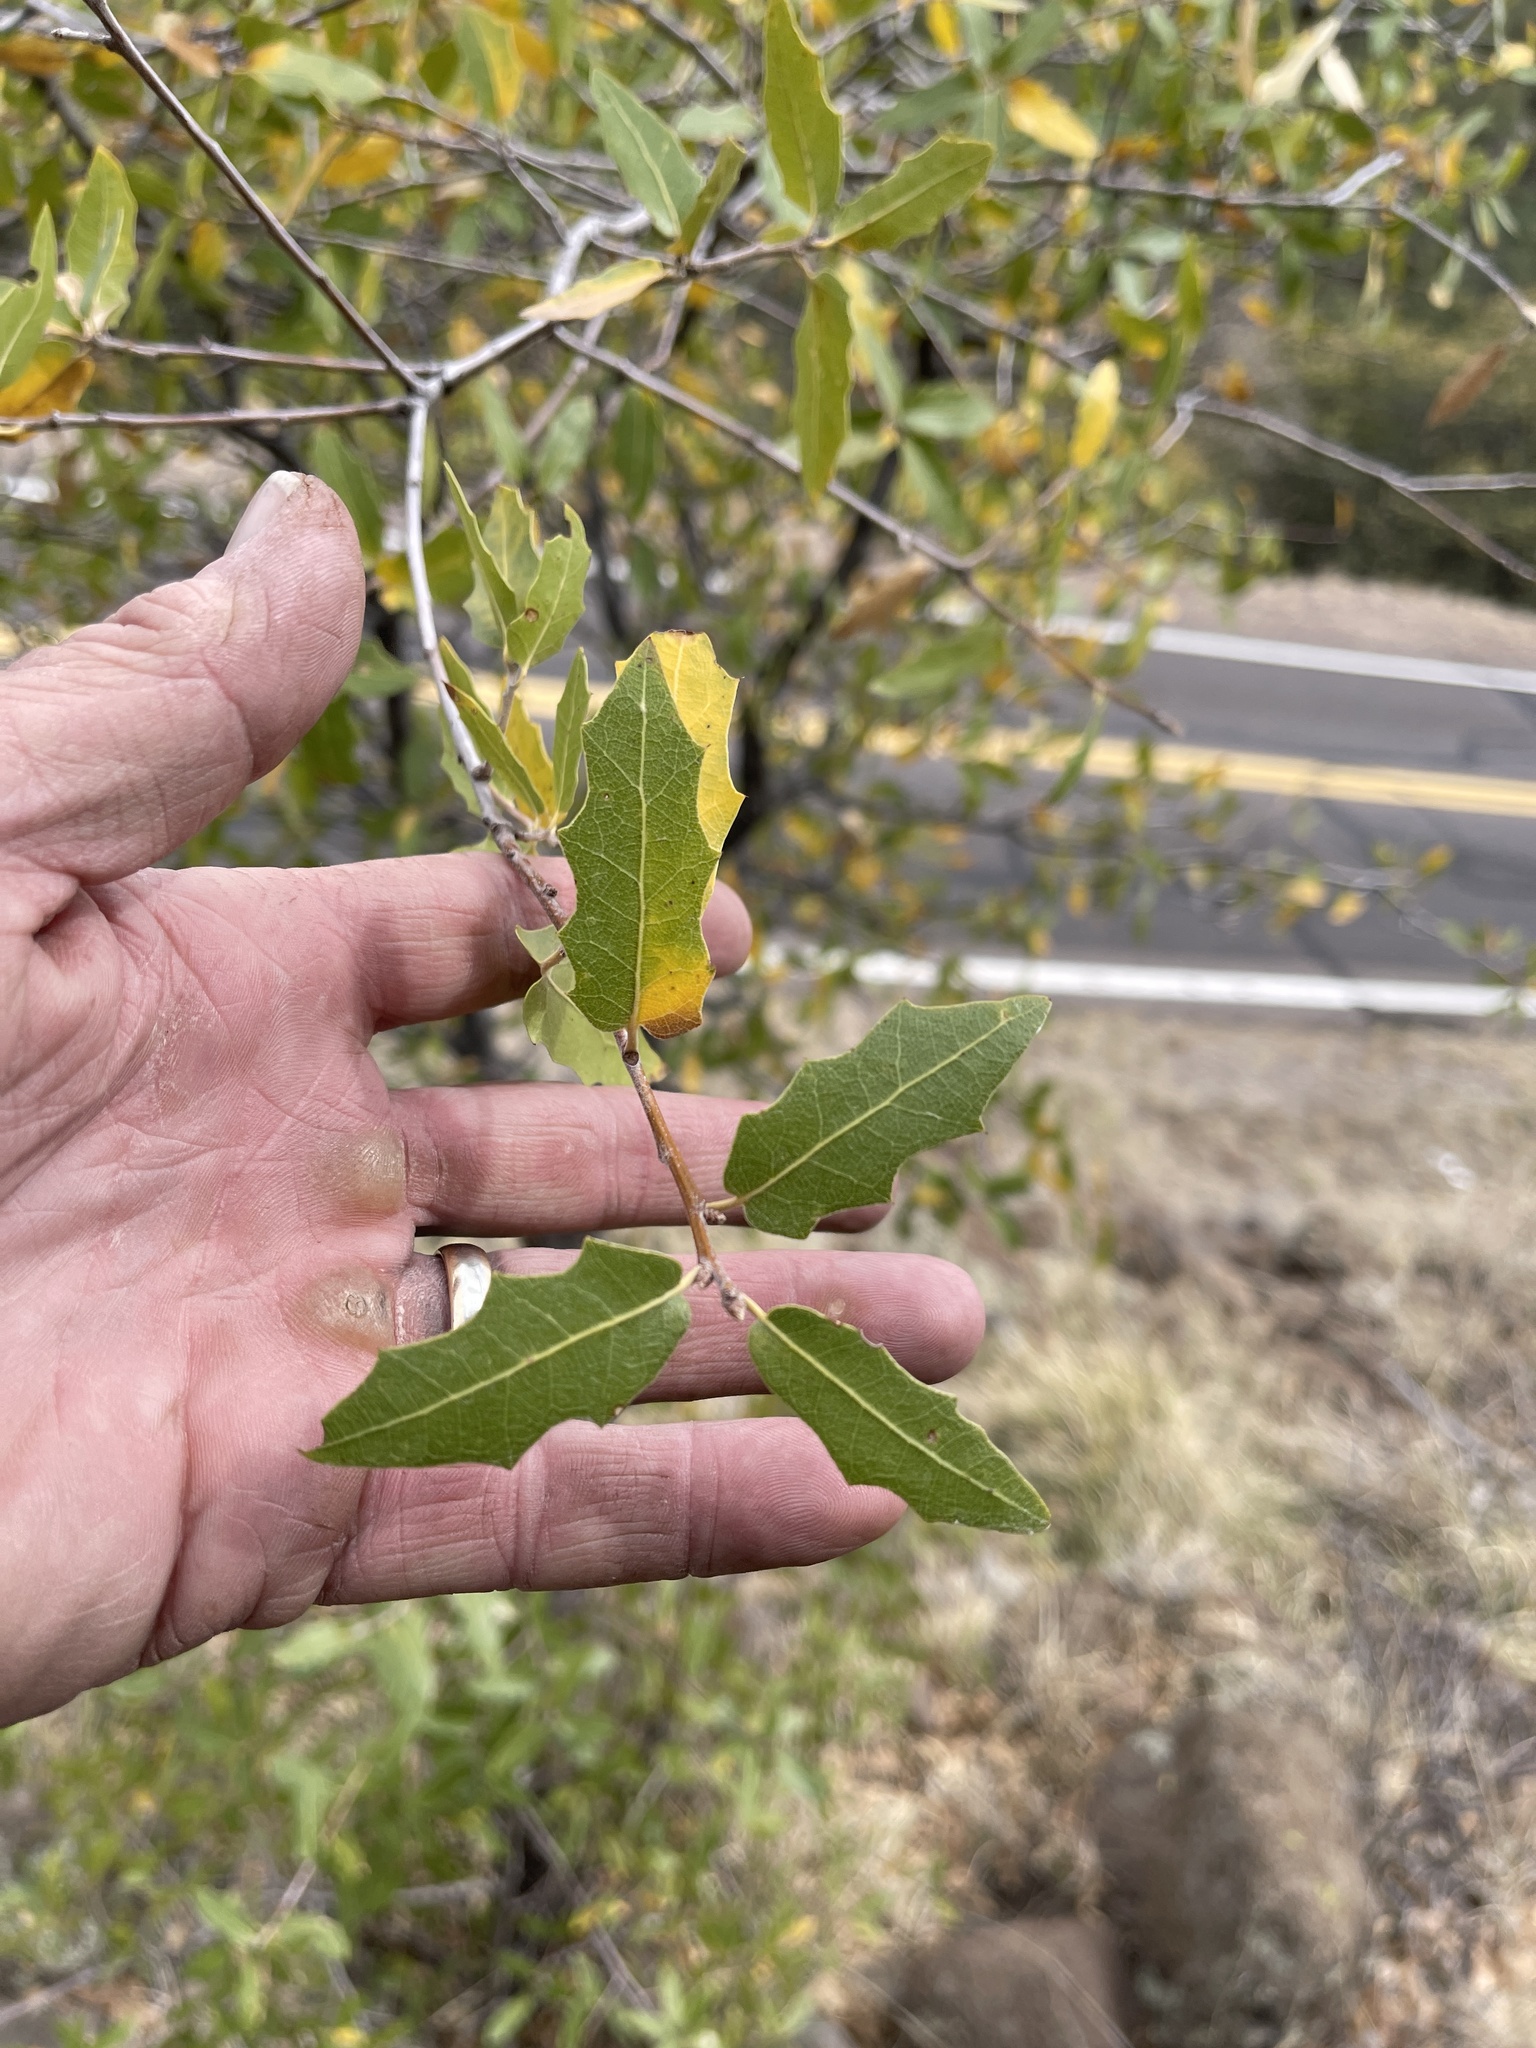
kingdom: Plantae
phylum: Tracheophyta
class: Magnoliopsida
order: Fagales
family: Fagaceae
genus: Quercus
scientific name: Quercus emoryi
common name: Emory oak
